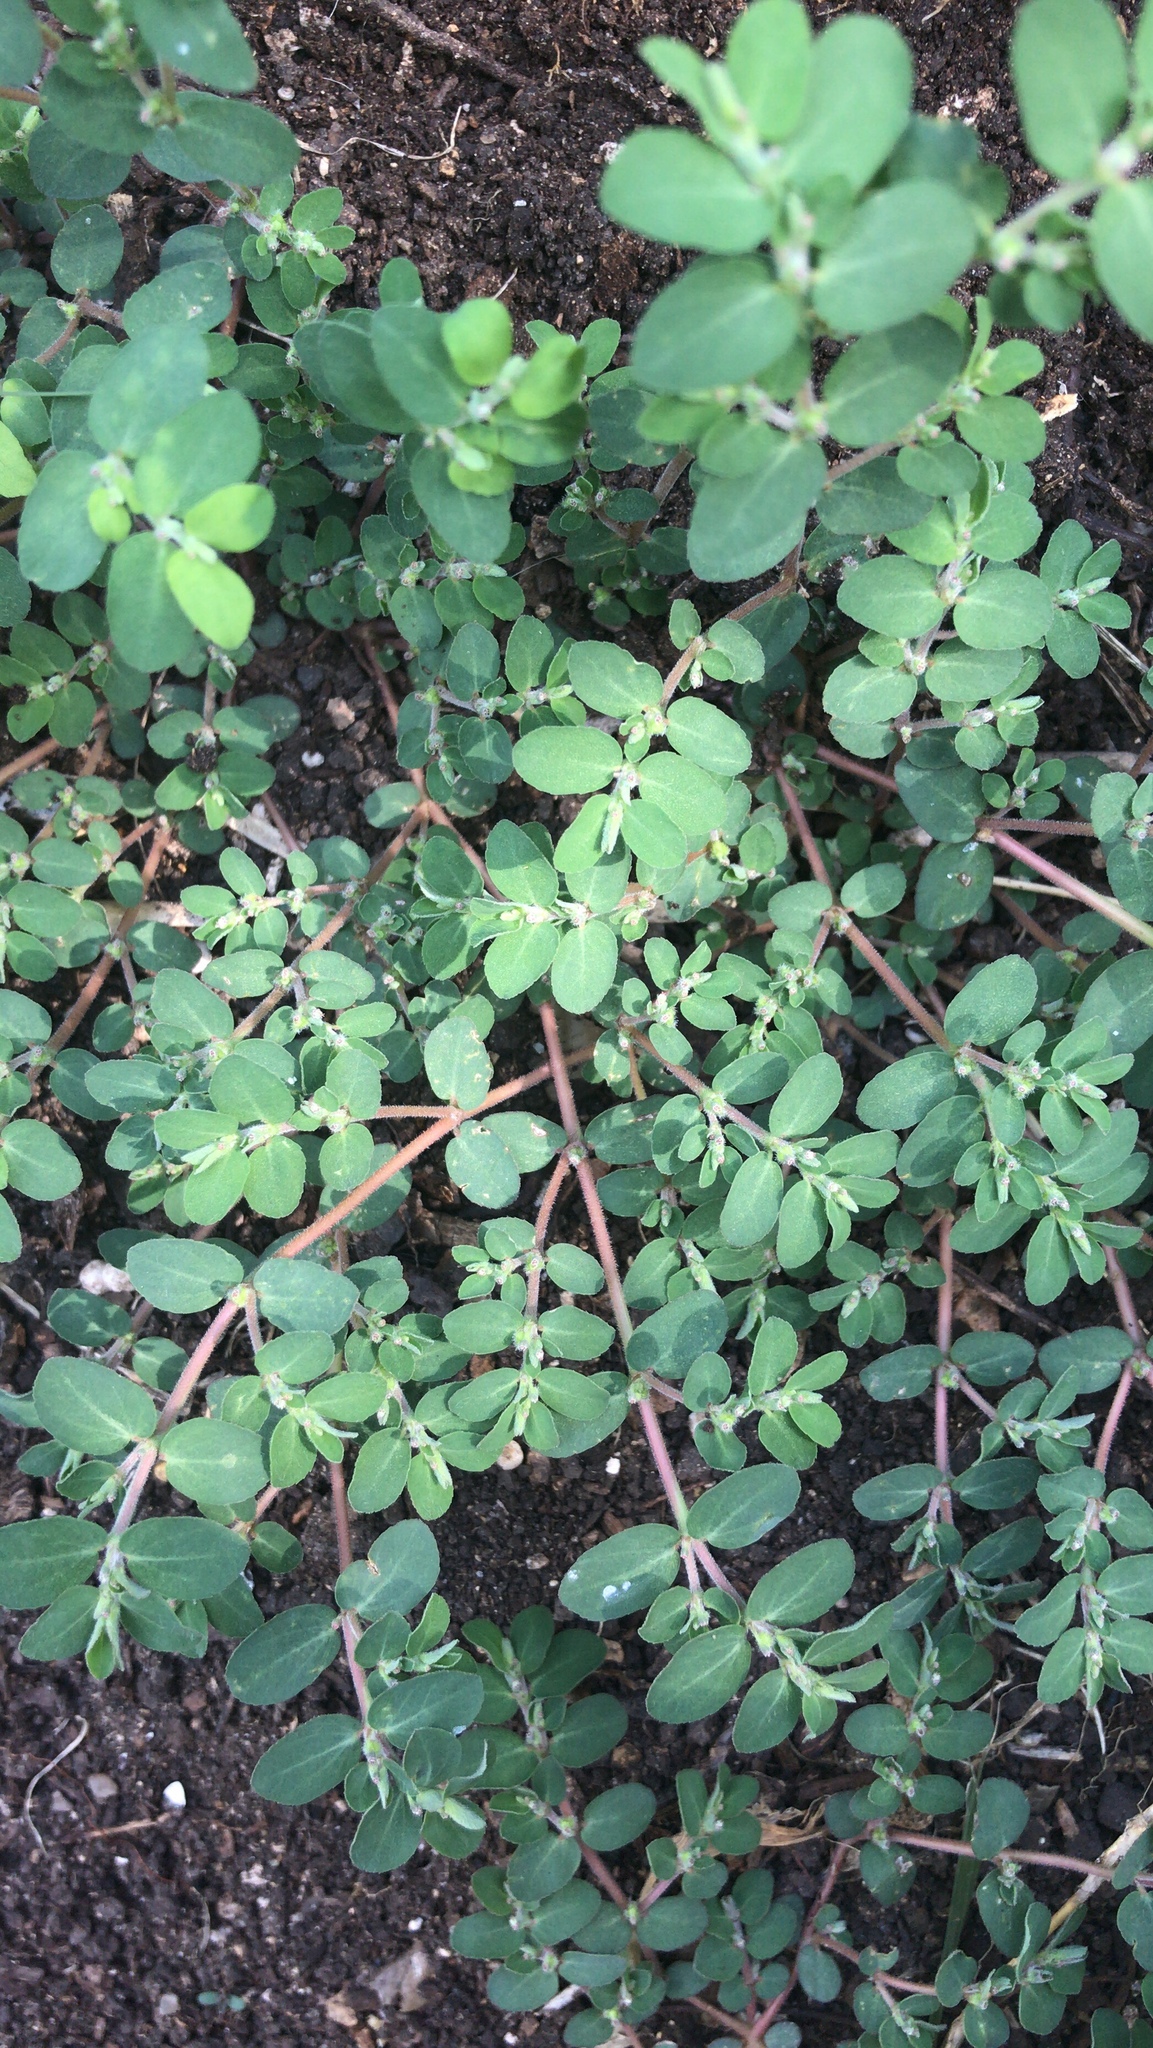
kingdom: Plantae
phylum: Tracheophyta
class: Magnoliopsida
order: Malpighiales
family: Euphorbiaceae
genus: Euphorbia
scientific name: Euphorbia prostrata
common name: Prostrate sandmat
